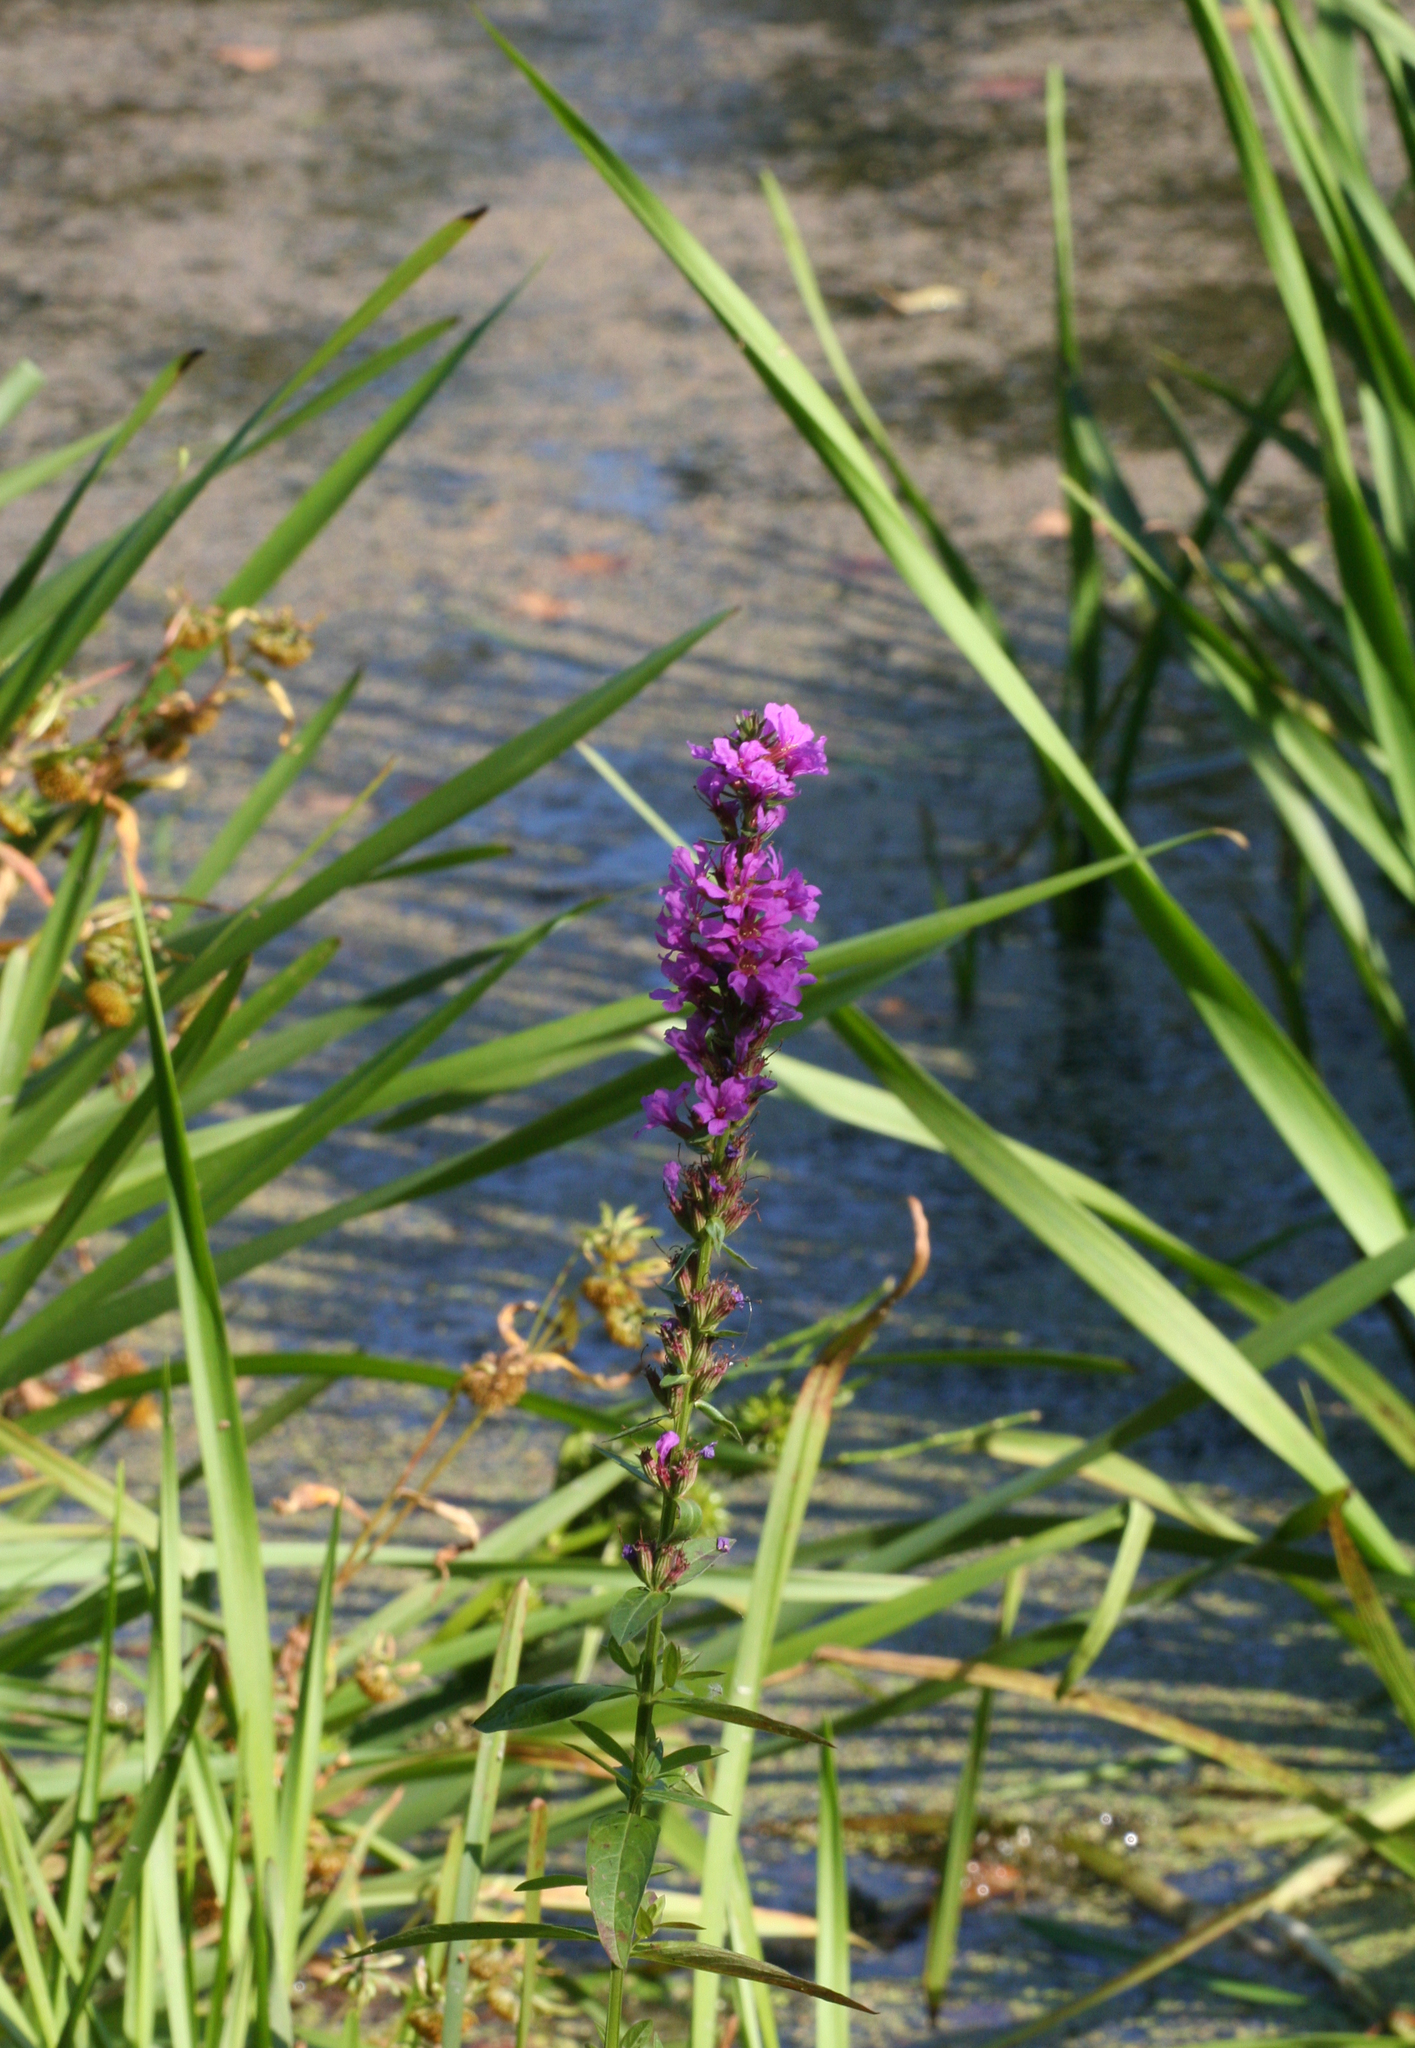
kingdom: Plantae
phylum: Tracheophyta
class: Magnoliopsida
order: Myrtales
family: Lythraceae
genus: Lythrum
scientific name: Lythrum salicaria
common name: Purple loosestrife
